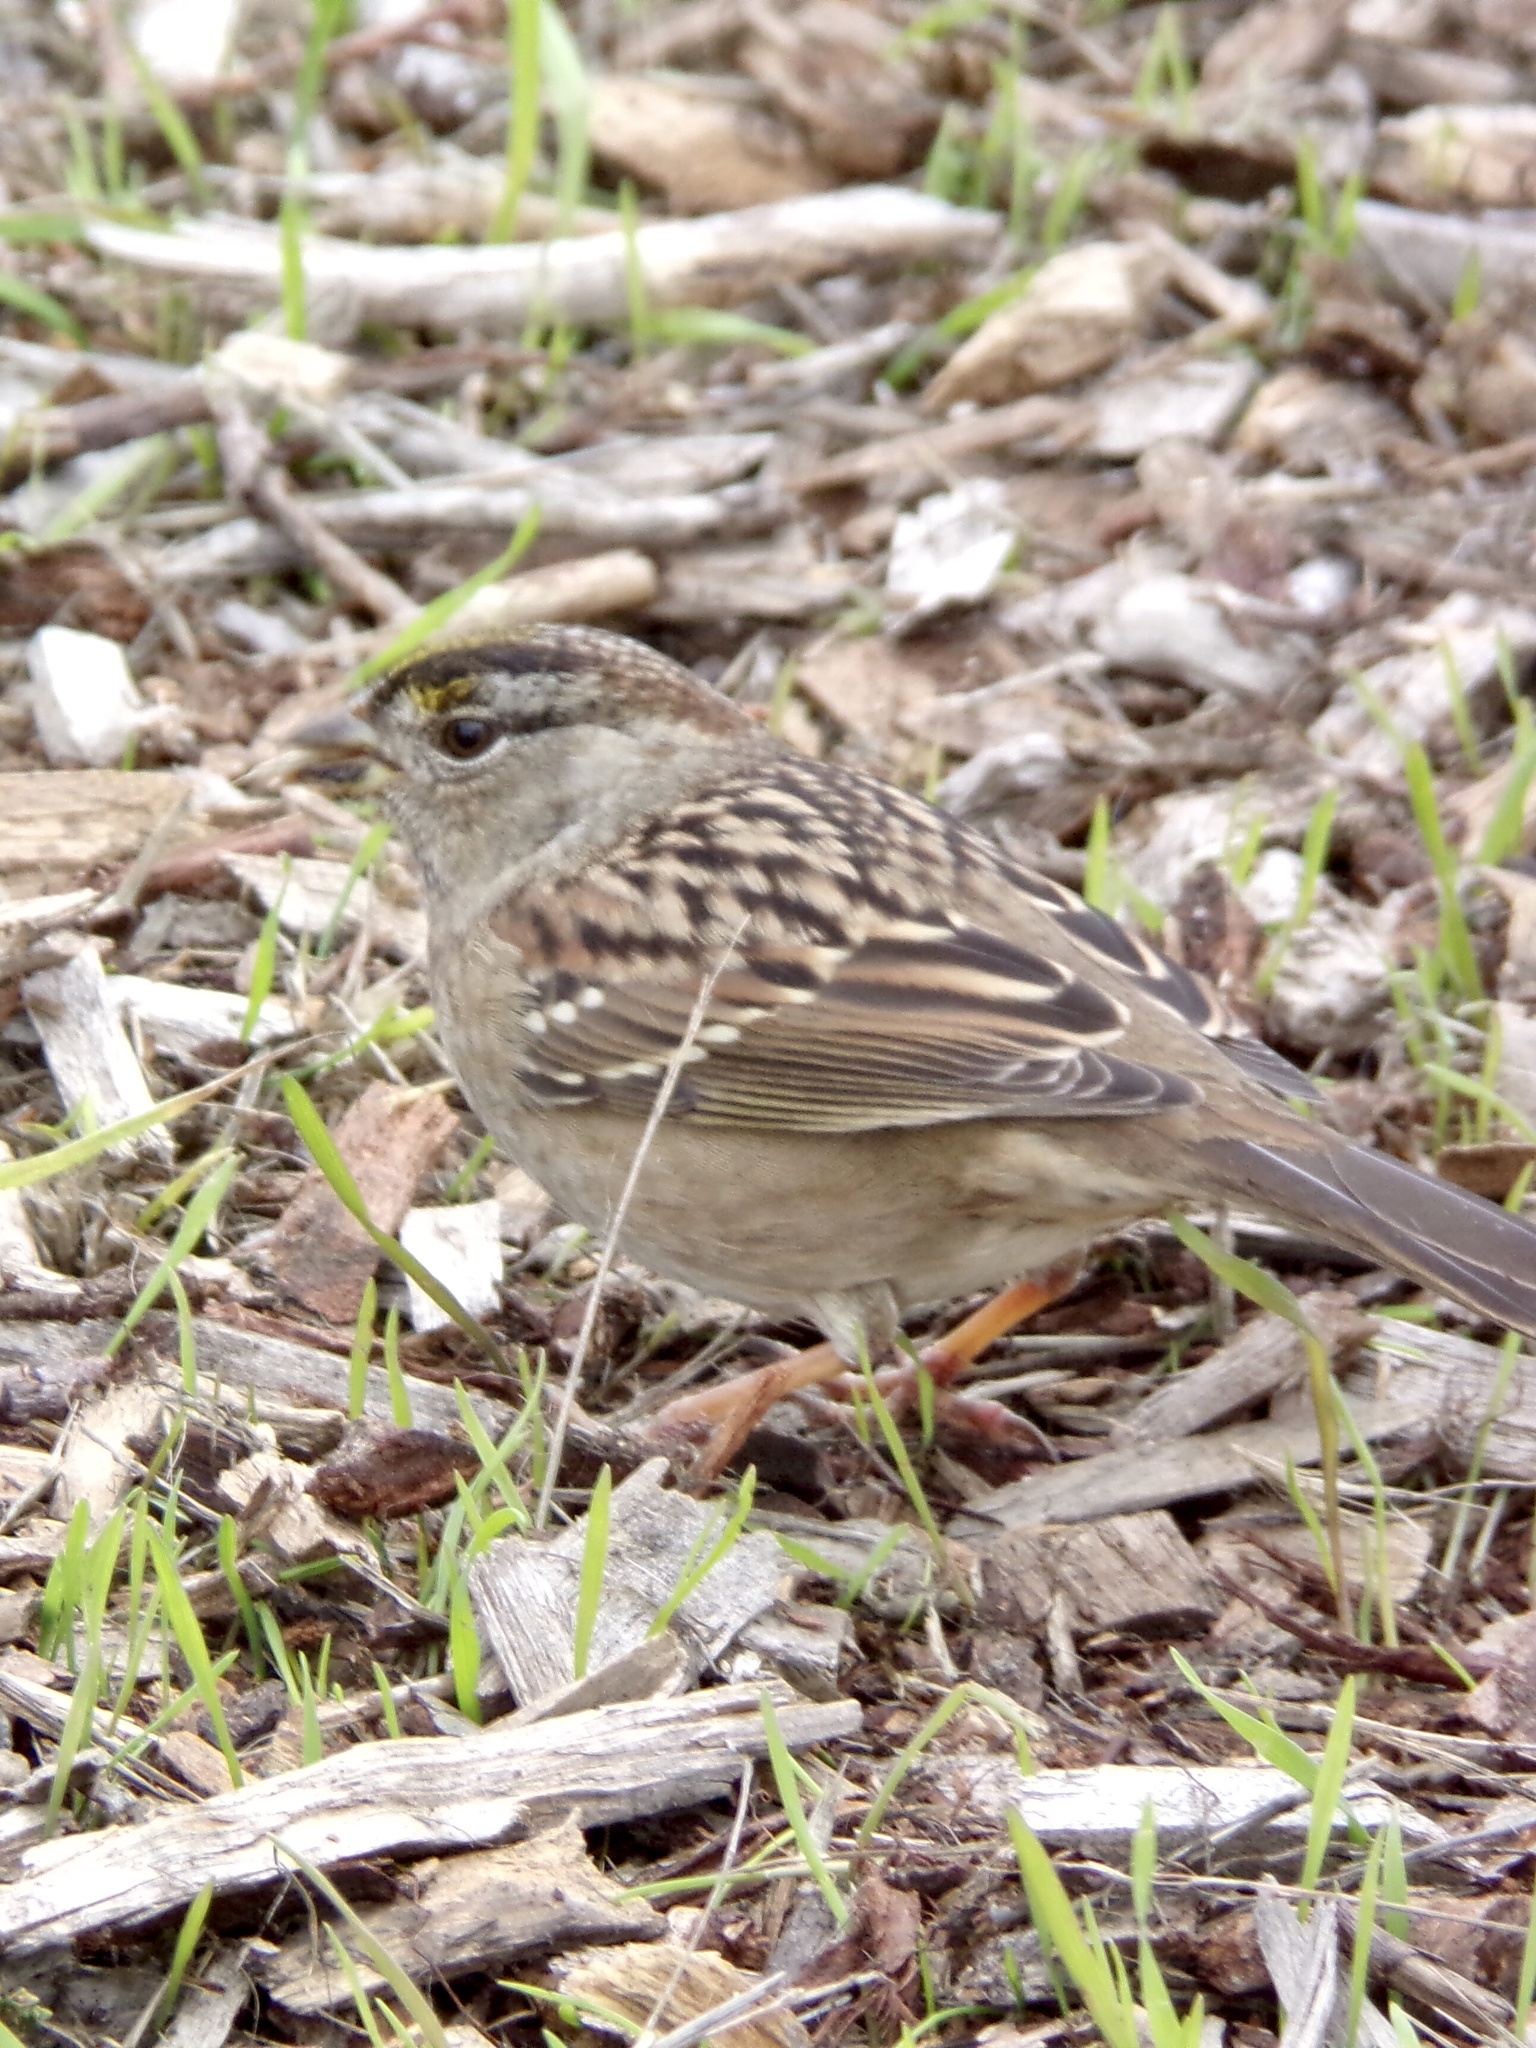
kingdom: Animalia
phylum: Chordata
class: Aves
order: Passeriformes
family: Passerellidae
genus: Zonotrichia
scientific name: Zonotrichia atricapilla
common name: Golden-crowned sparrow
